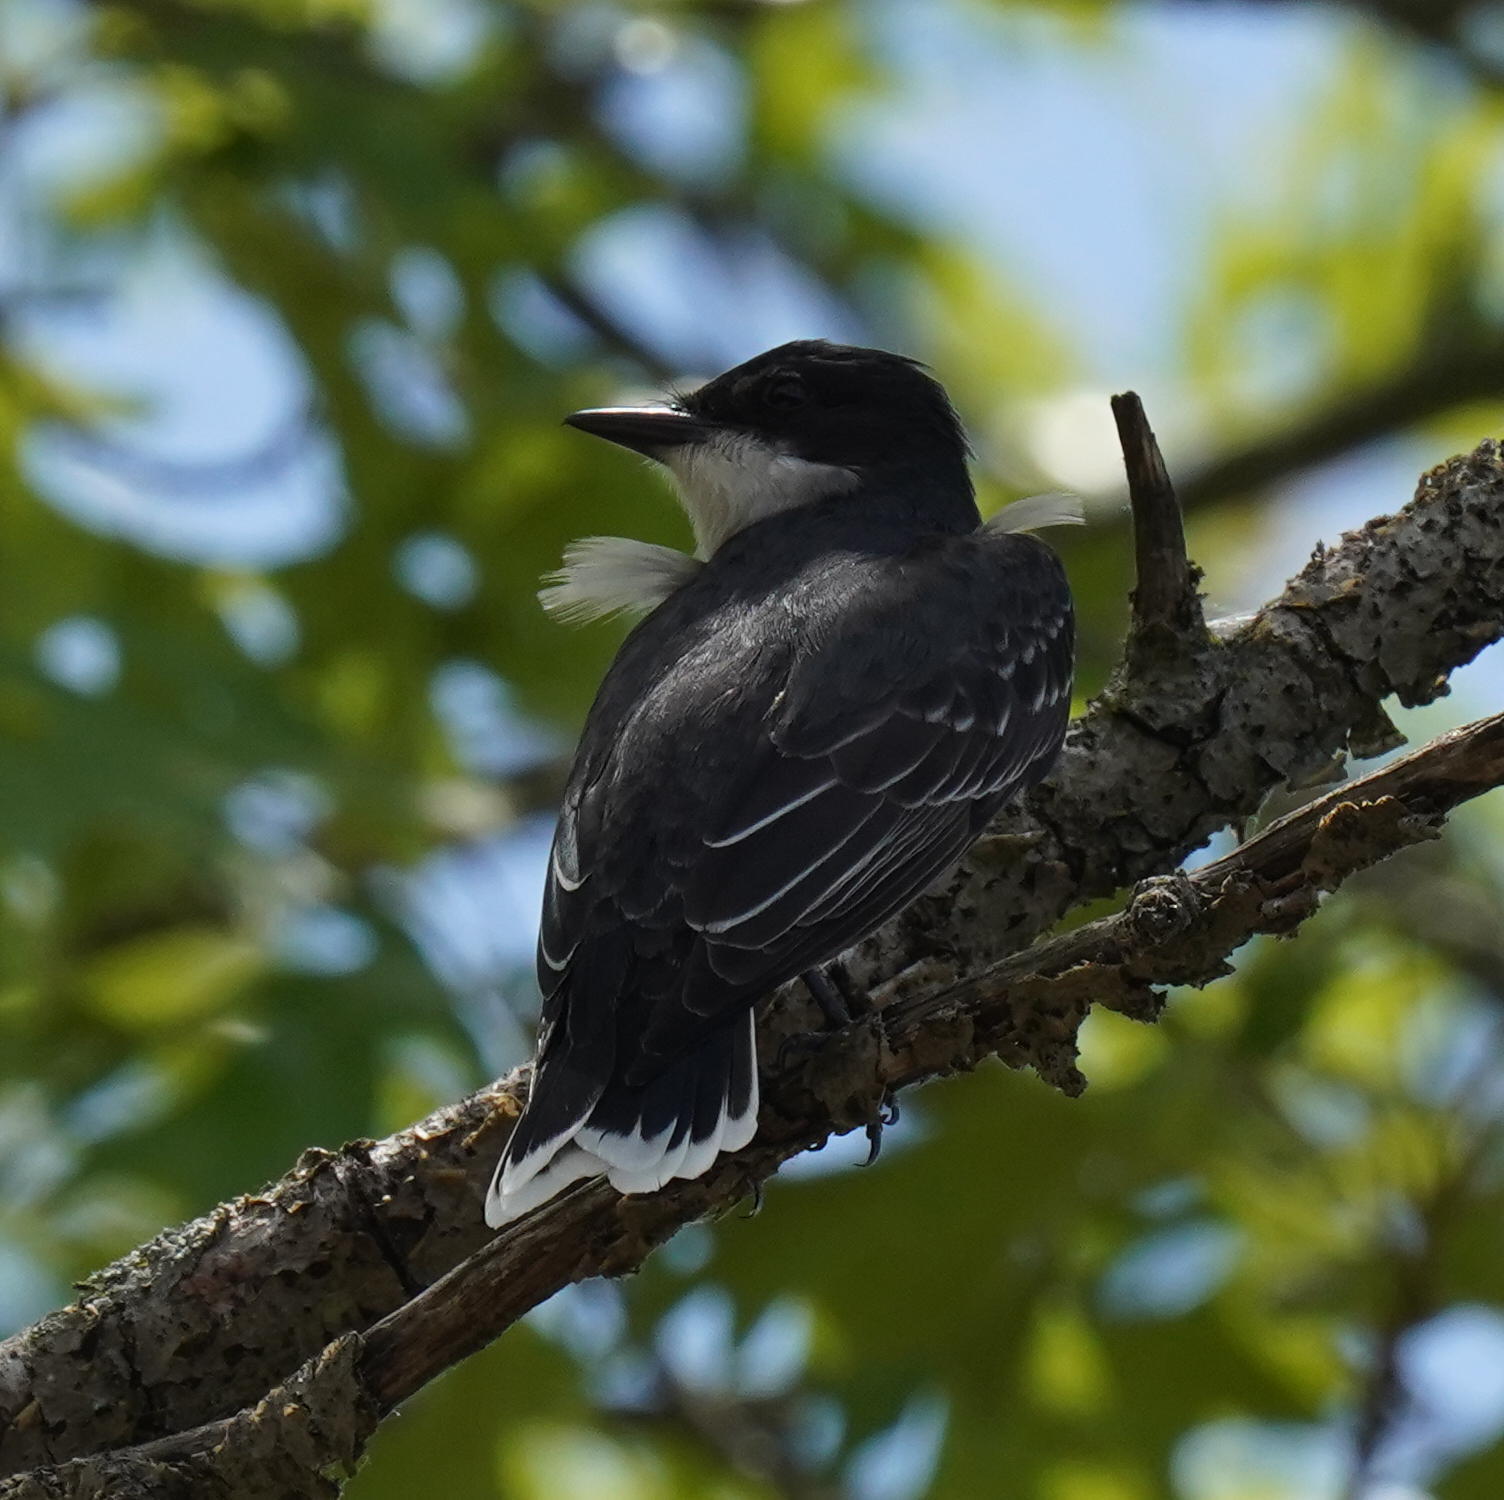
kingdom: Animalia
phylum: Chordata
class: Aves
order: Passeriformes
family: Tyrannidae
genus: Tyrannus
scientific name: Tyrannus tyrannus
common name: Eastern kingbird
